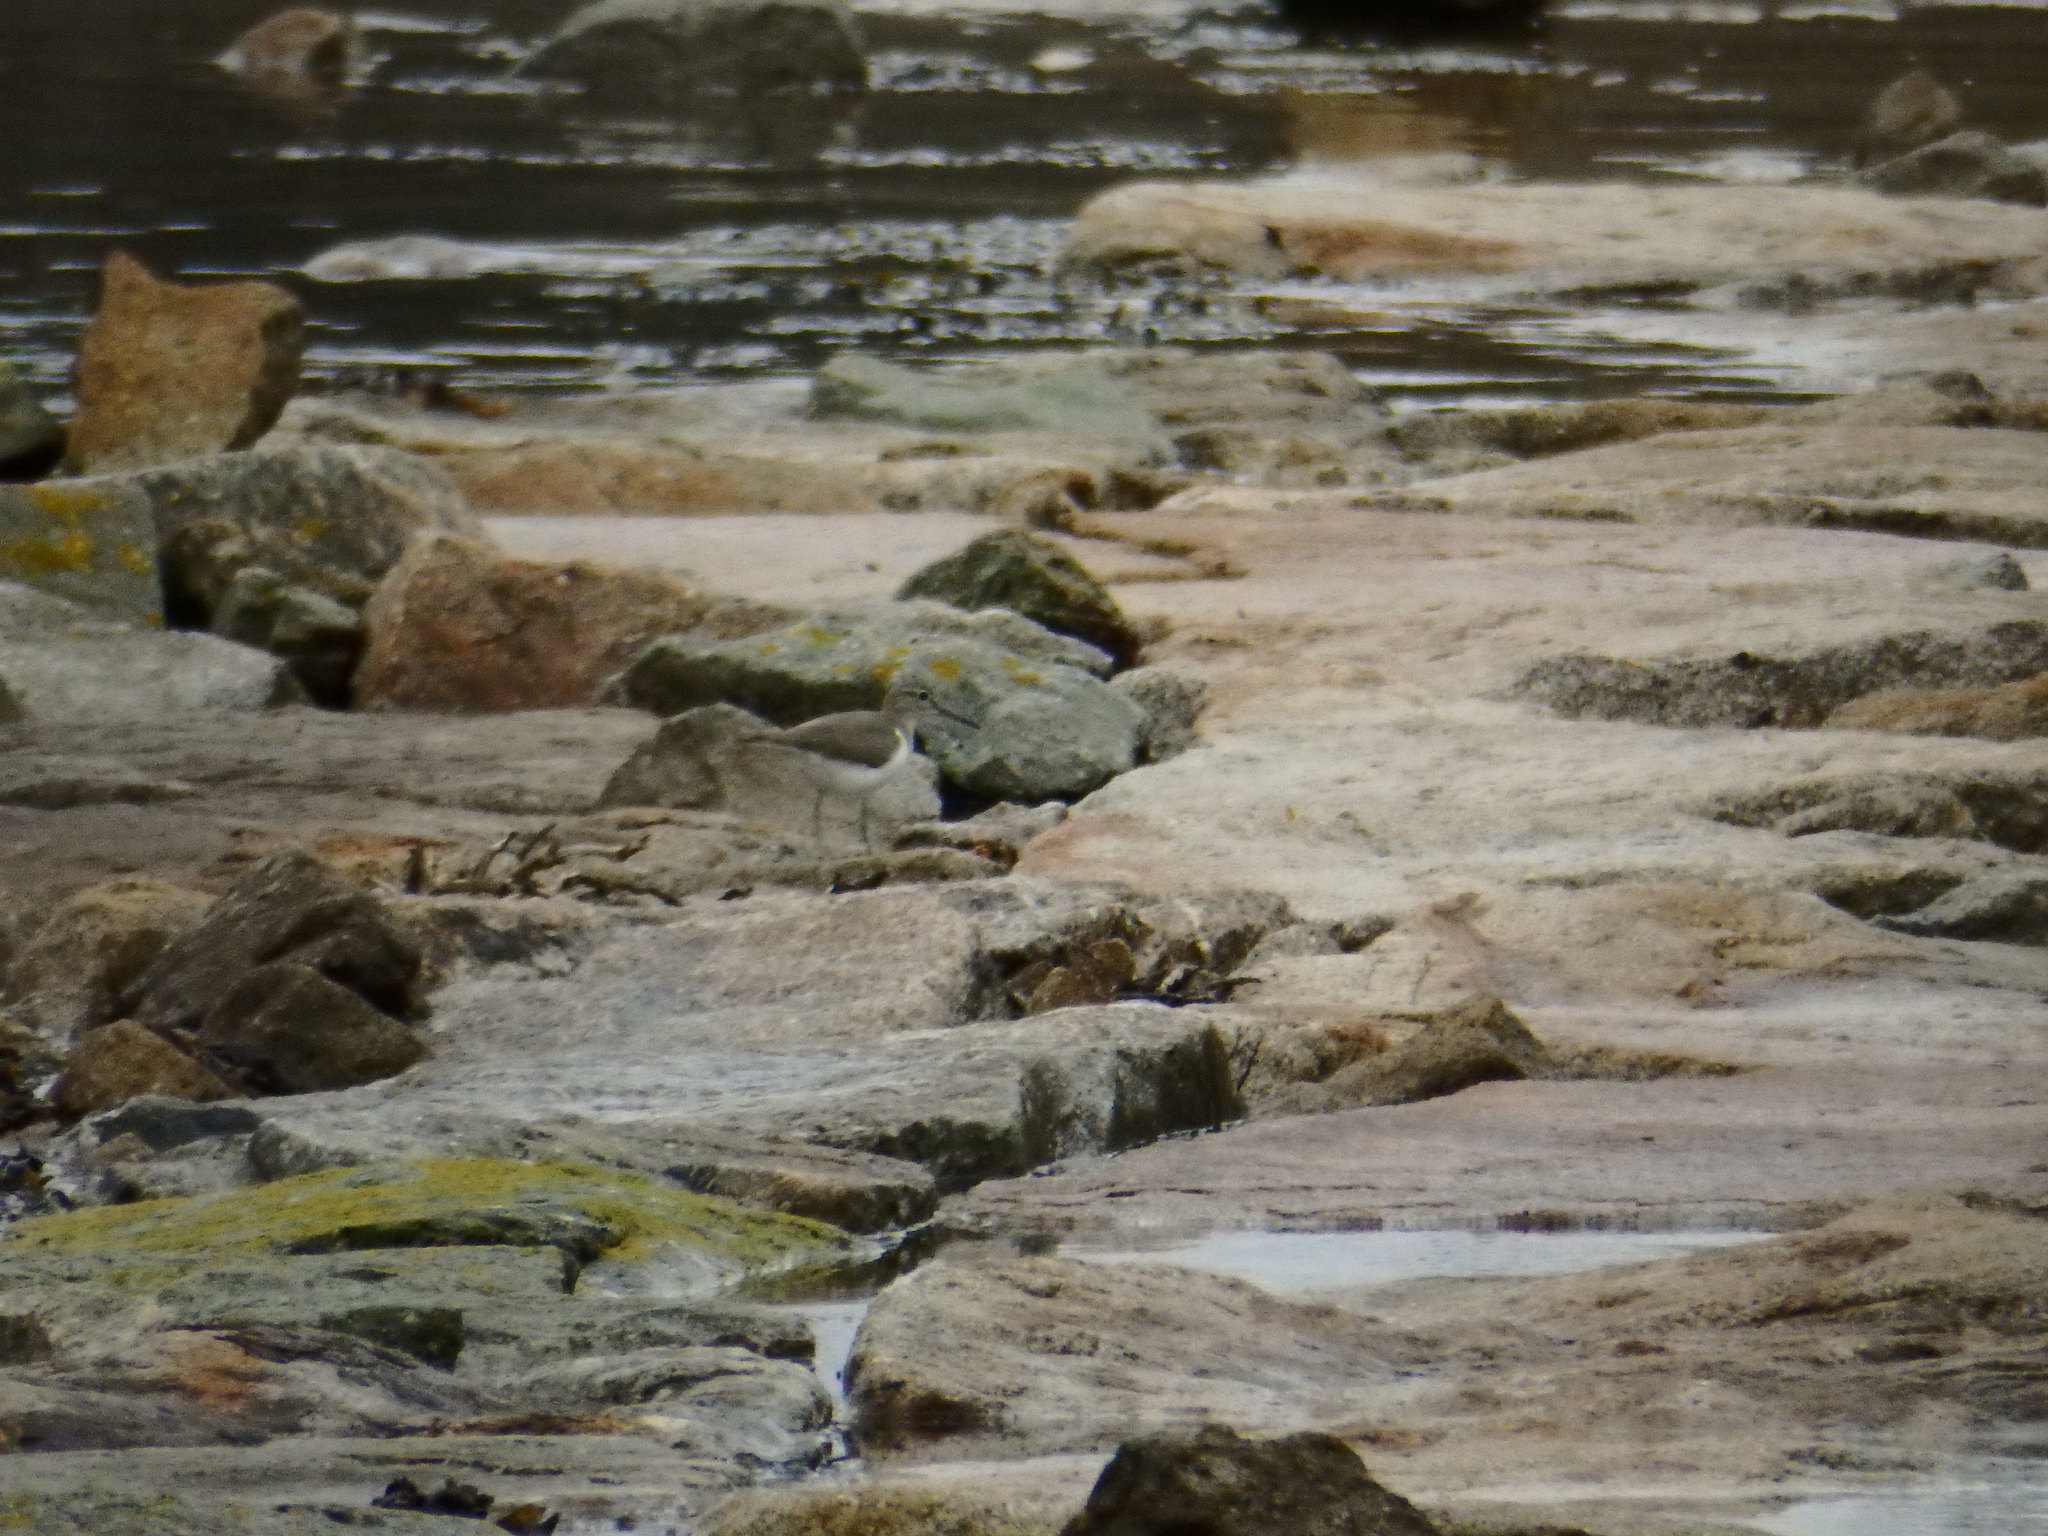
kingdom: Animalia
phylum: Chordata
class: Aves
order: Charadriiformes
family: Scolopacidae
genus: Actitis
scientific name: Actitis hypoleucos
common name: Common sandpiper
